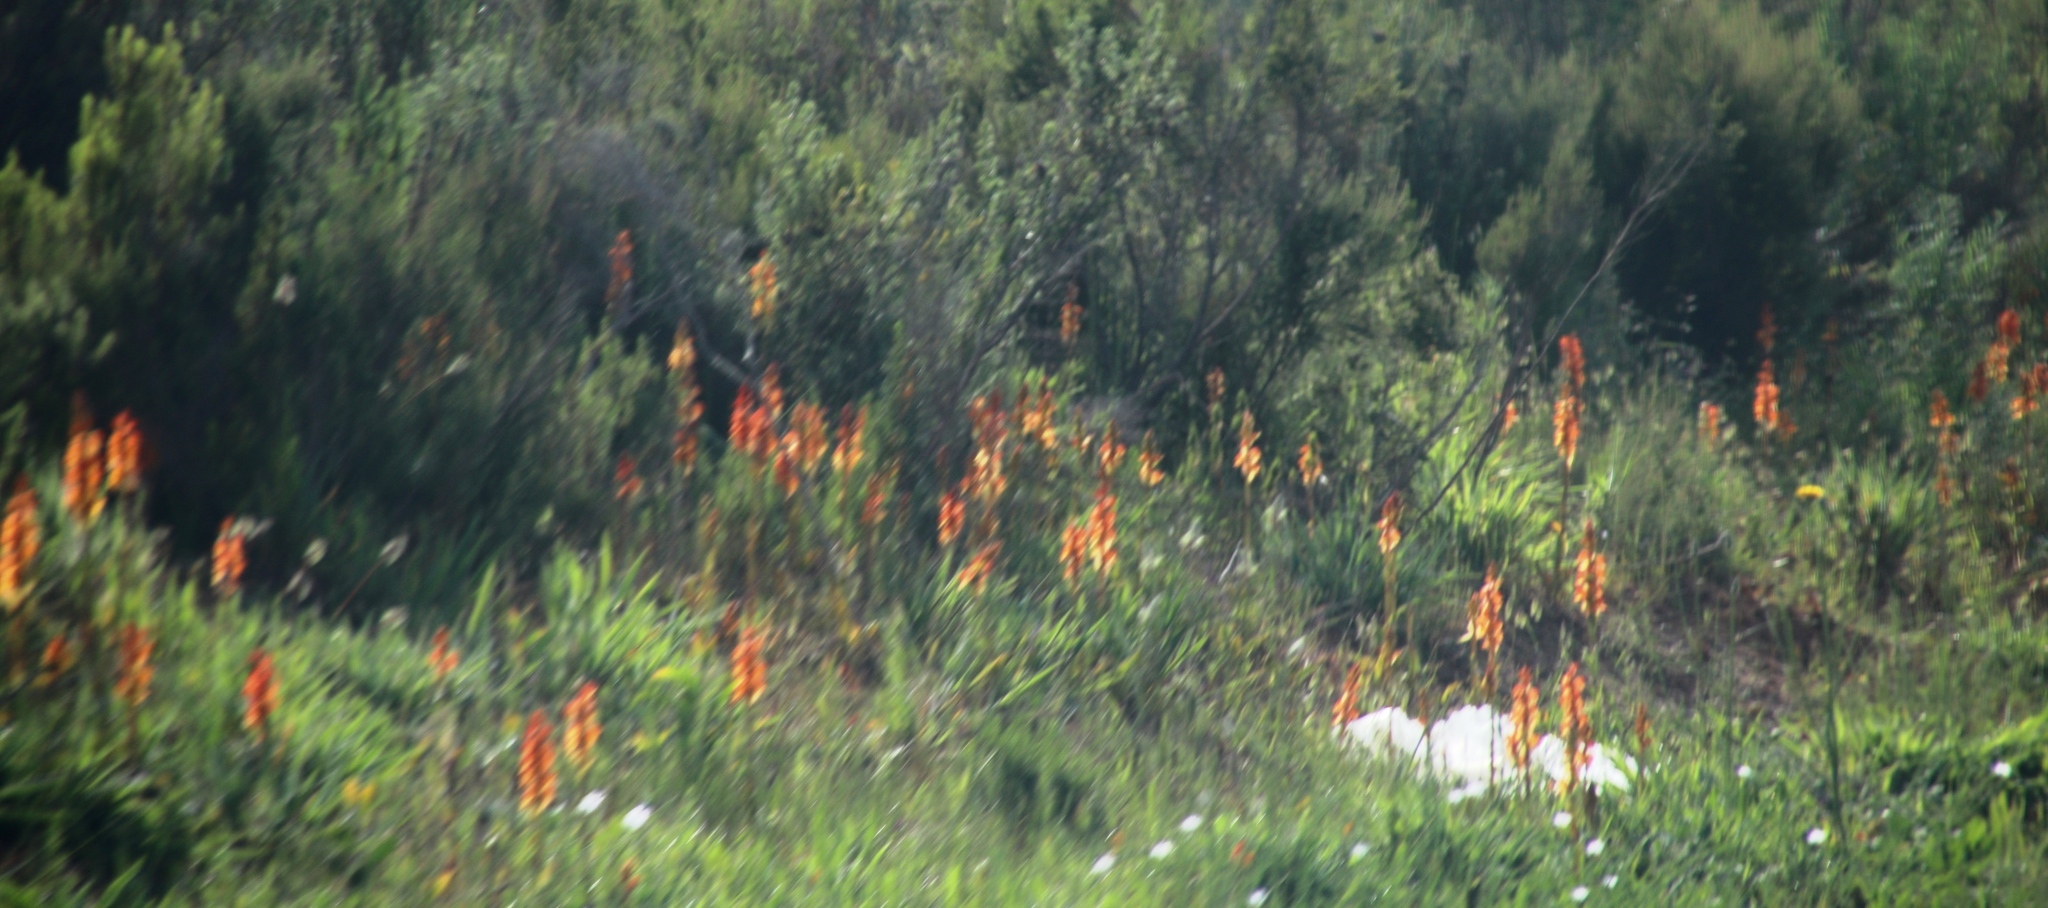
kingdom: Plantae
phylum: Tracheophyta
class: Liliopsida
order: Asparagales
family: Orchidaceae
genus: Satyrium
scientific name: Satyrium coriifolium
